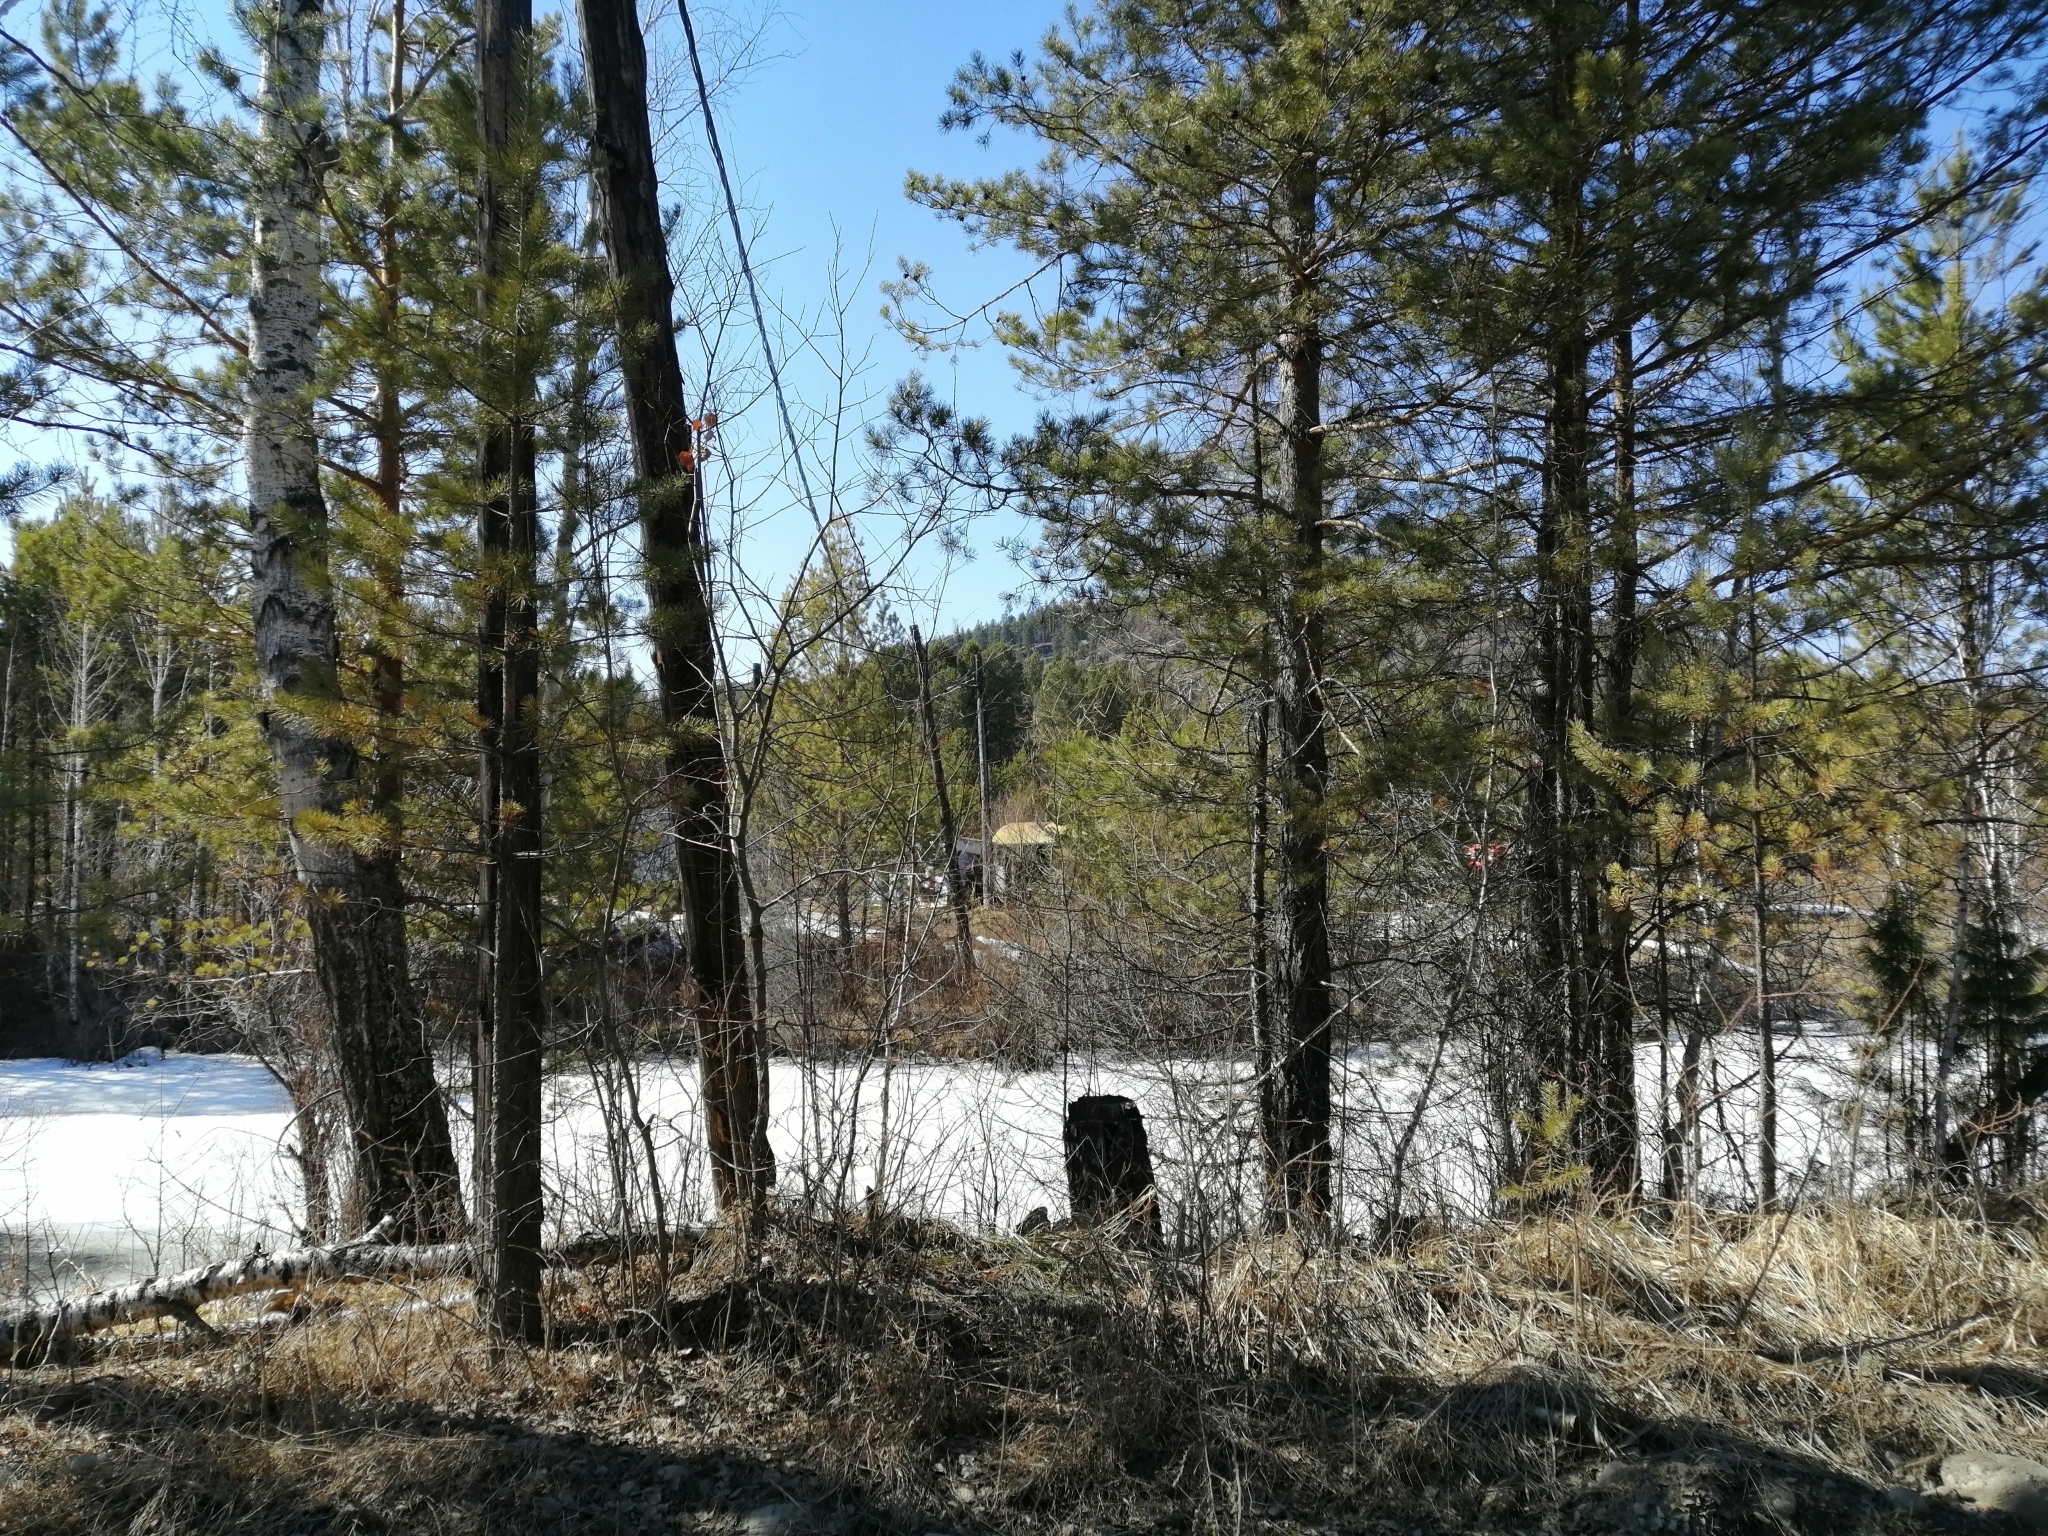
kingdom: Plantae
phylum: Tracheophyta
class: Pinopsida
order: Pinales
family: Pinaceae
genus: Pinus
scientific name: Pinus sylvestris
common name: Scots pine
